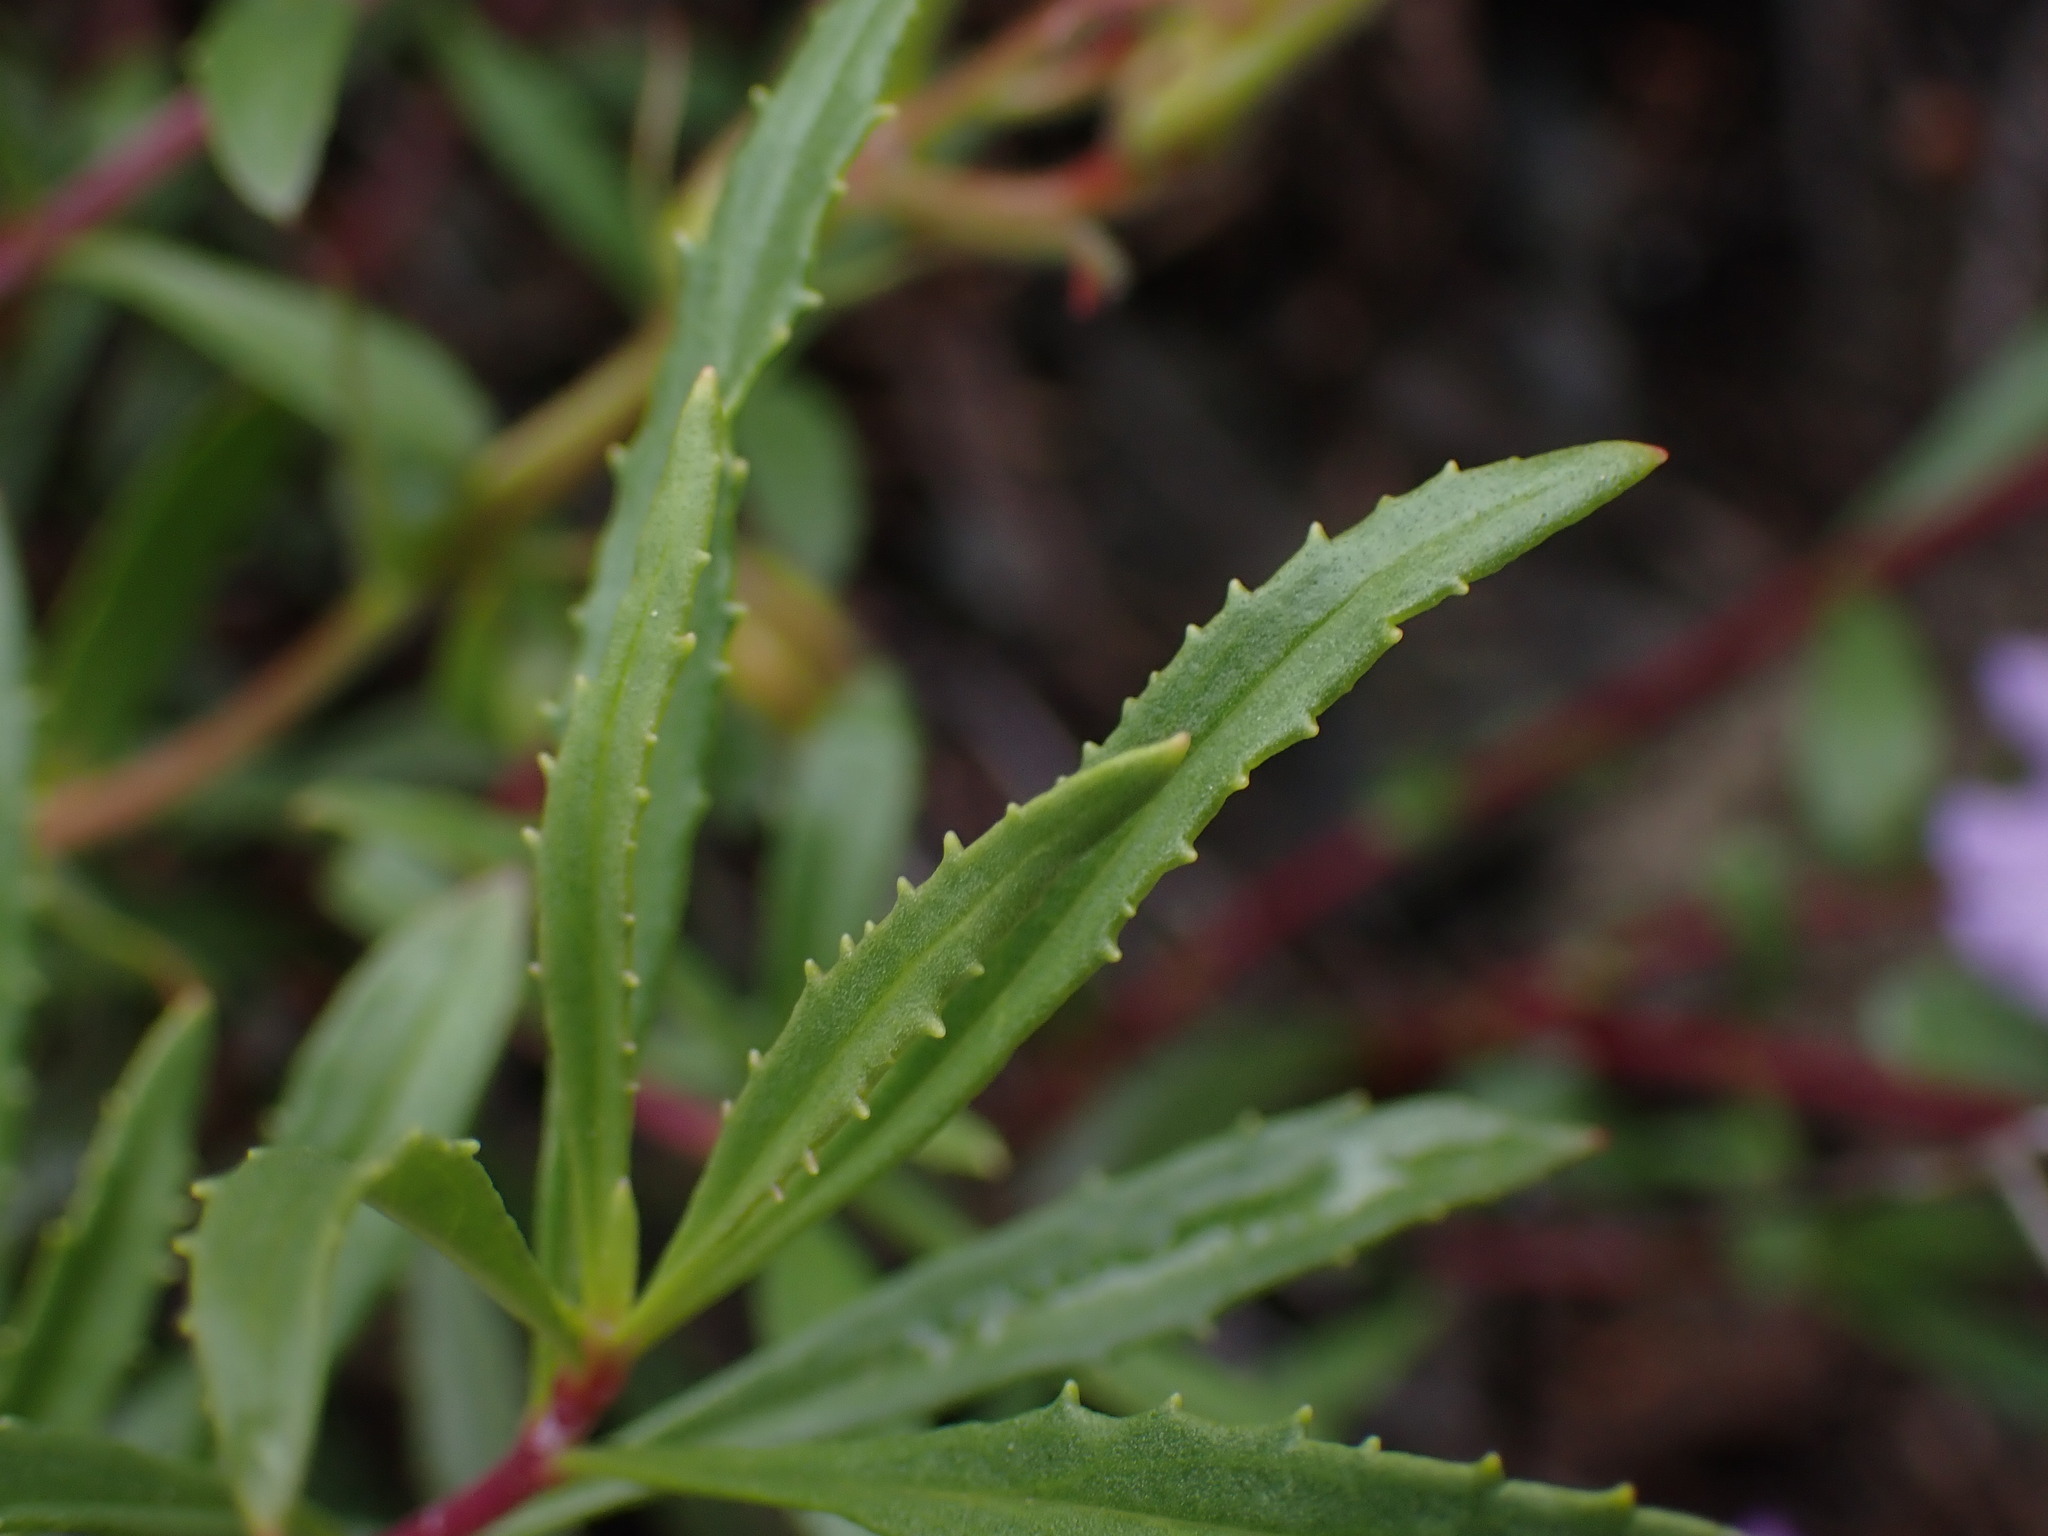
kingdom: Plantae
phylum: Tracheophyta
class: Magnoliopsida
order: Lamiales
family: Plantaginaceae
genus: Penstemon
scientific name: Penstemon fruticosus
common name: Bush penstemon
